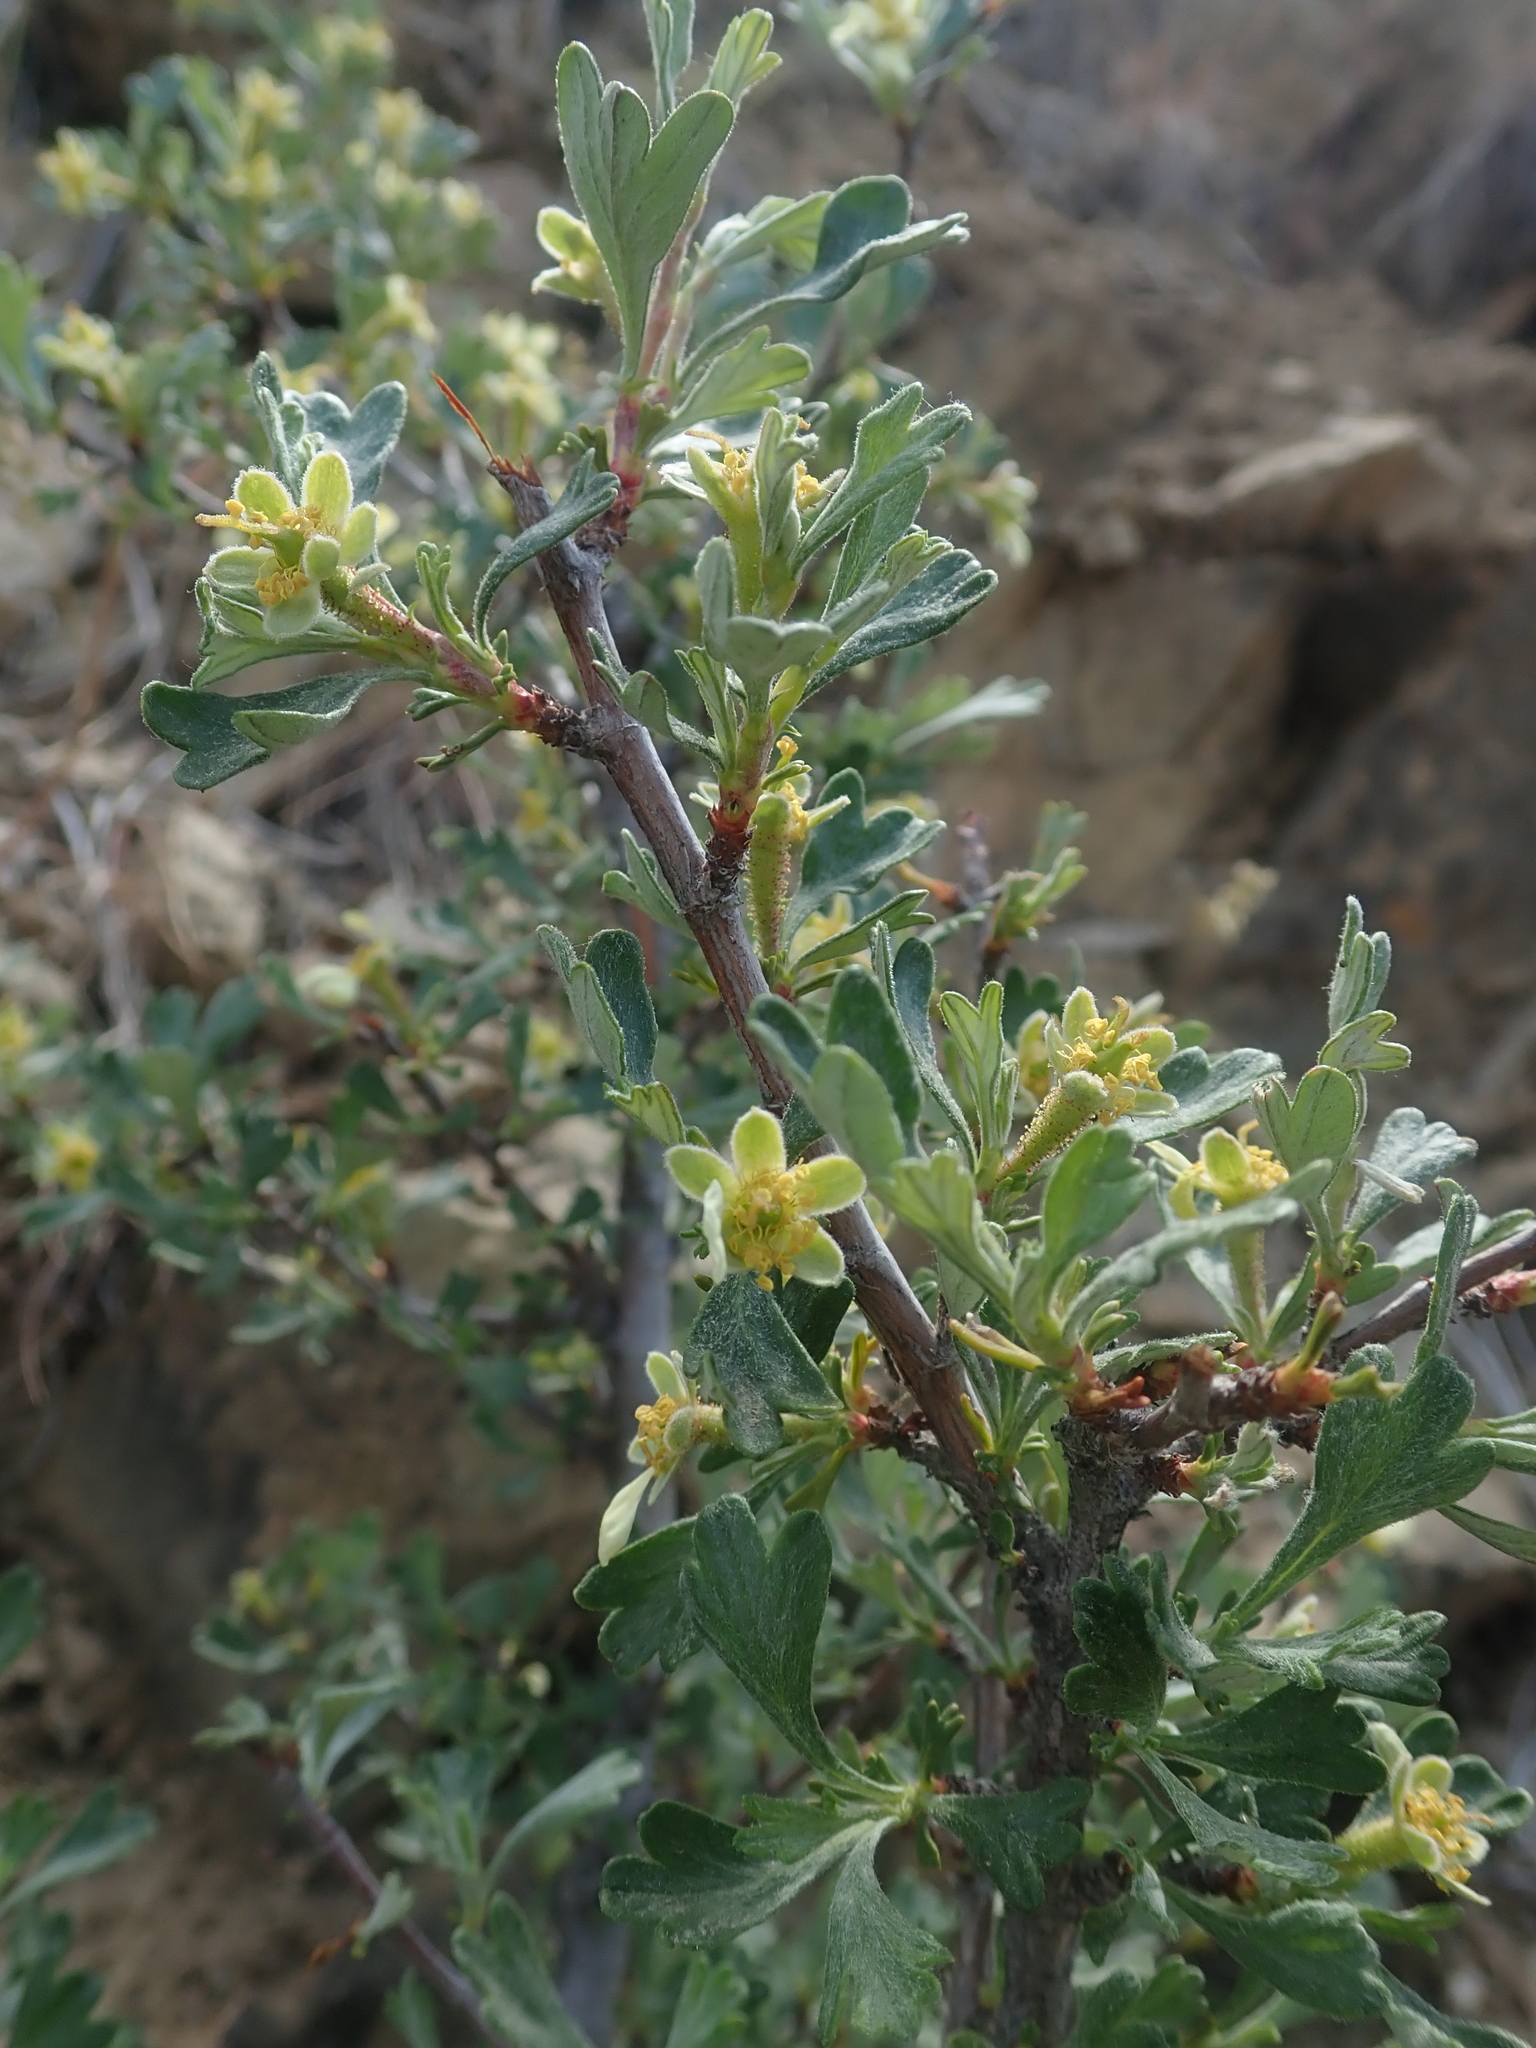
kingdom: Plantae
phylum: Tracheophyta
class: Magnoliopsida
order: Rosales
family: Rosaceae
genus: Purshia
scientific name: Purshia tridentata
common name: Antelope bitterbrush
